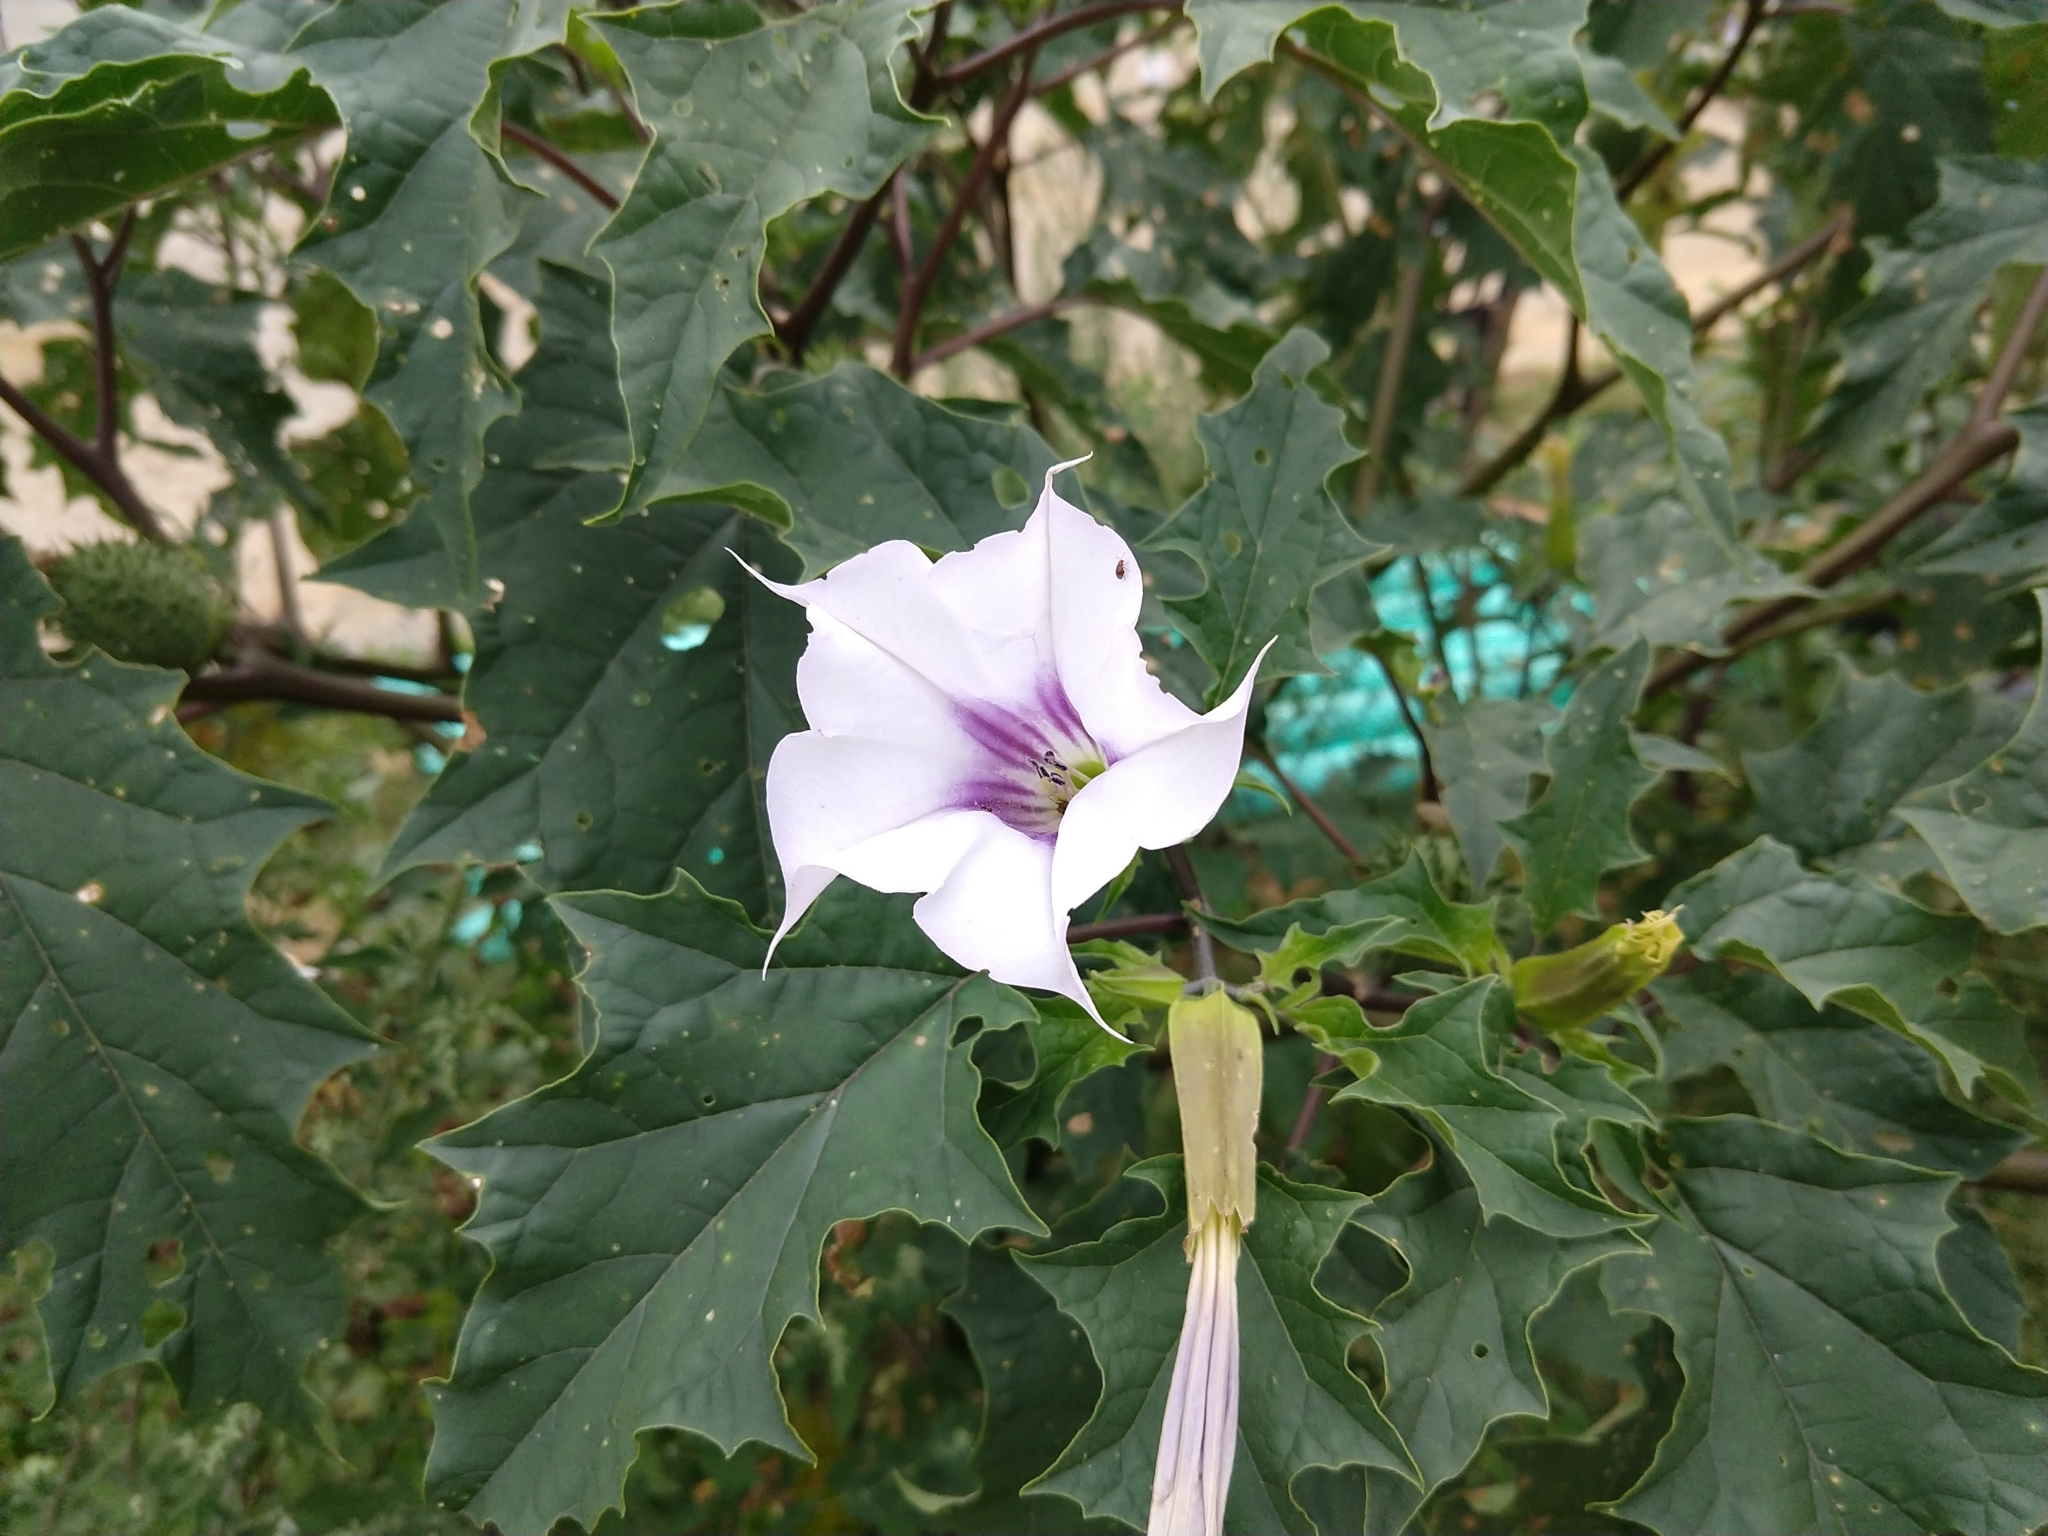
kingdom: Plantae
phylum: Tracheophyta
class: Magnoliopsida
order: Solanales
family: Solanaceae
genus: Datura
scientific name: Datura stramonium
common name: Thorn-apple
